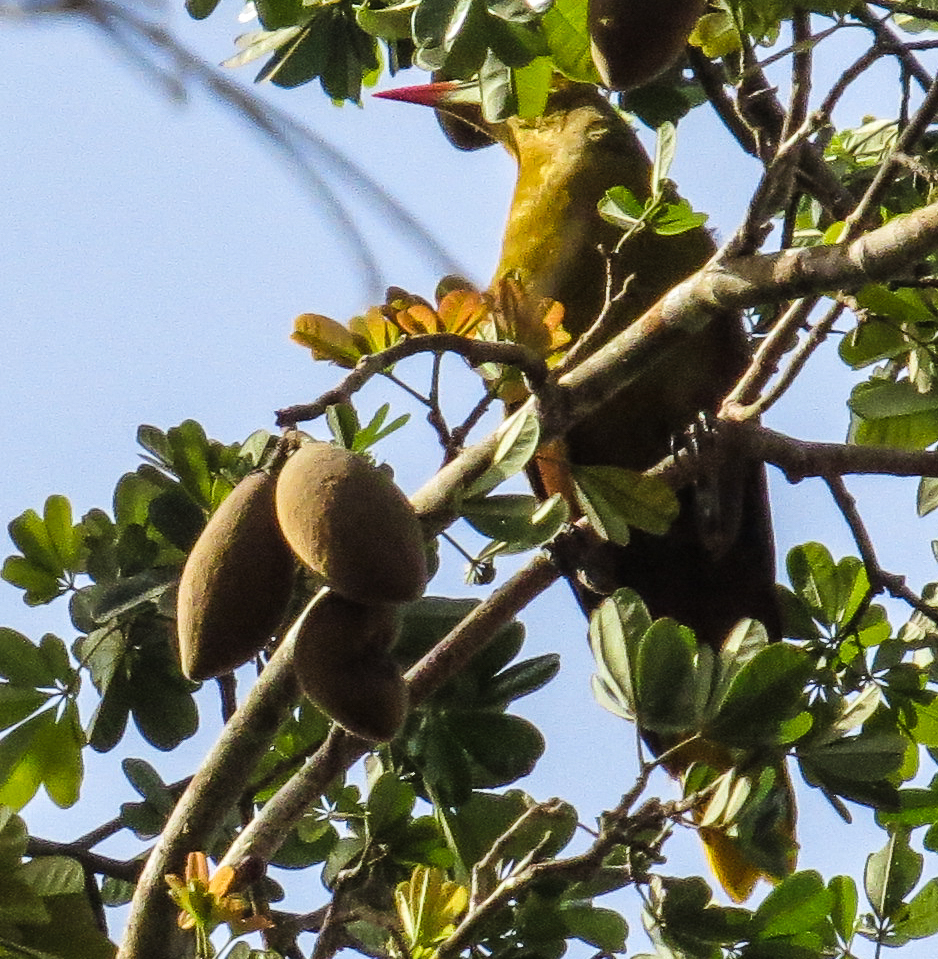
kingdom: Animalia
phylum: Chordata
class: Aves
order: Passeriformes
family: Icteridae
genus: Psarocolius
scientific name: Psarocolius viridis
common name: Green oropendola
